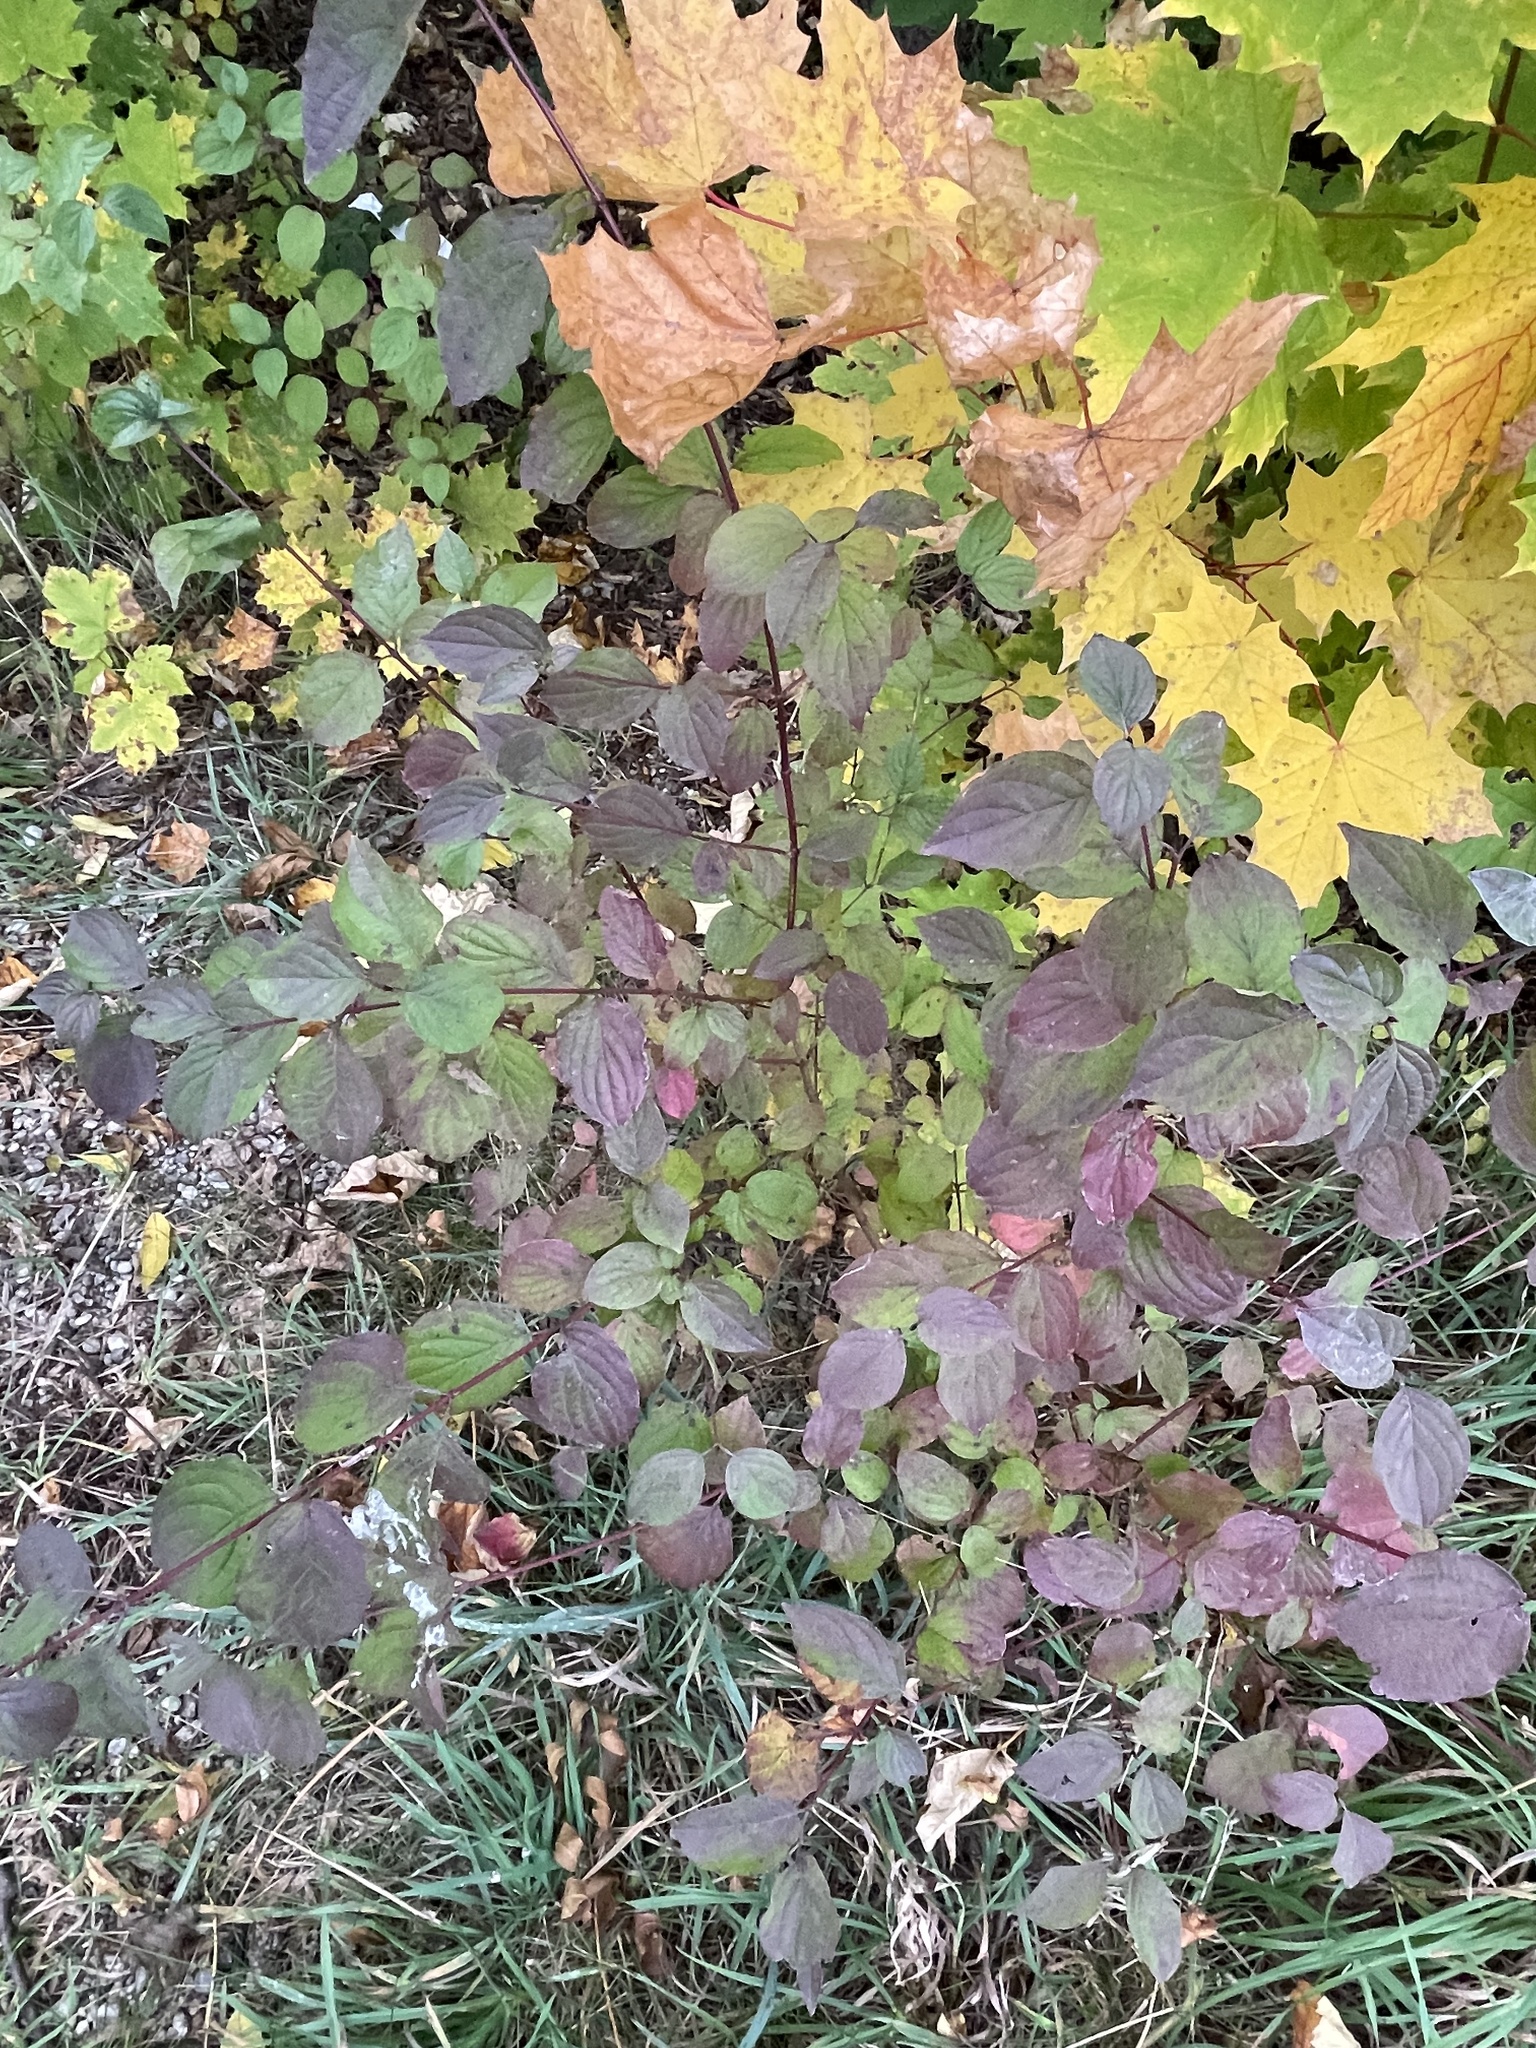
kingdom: Plantae
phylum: Tracheophyta
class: Magnoliopsida
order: Cornales
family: Cornaceae
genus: Cornus
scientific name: Cornus sanguinea
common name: Dogwood
